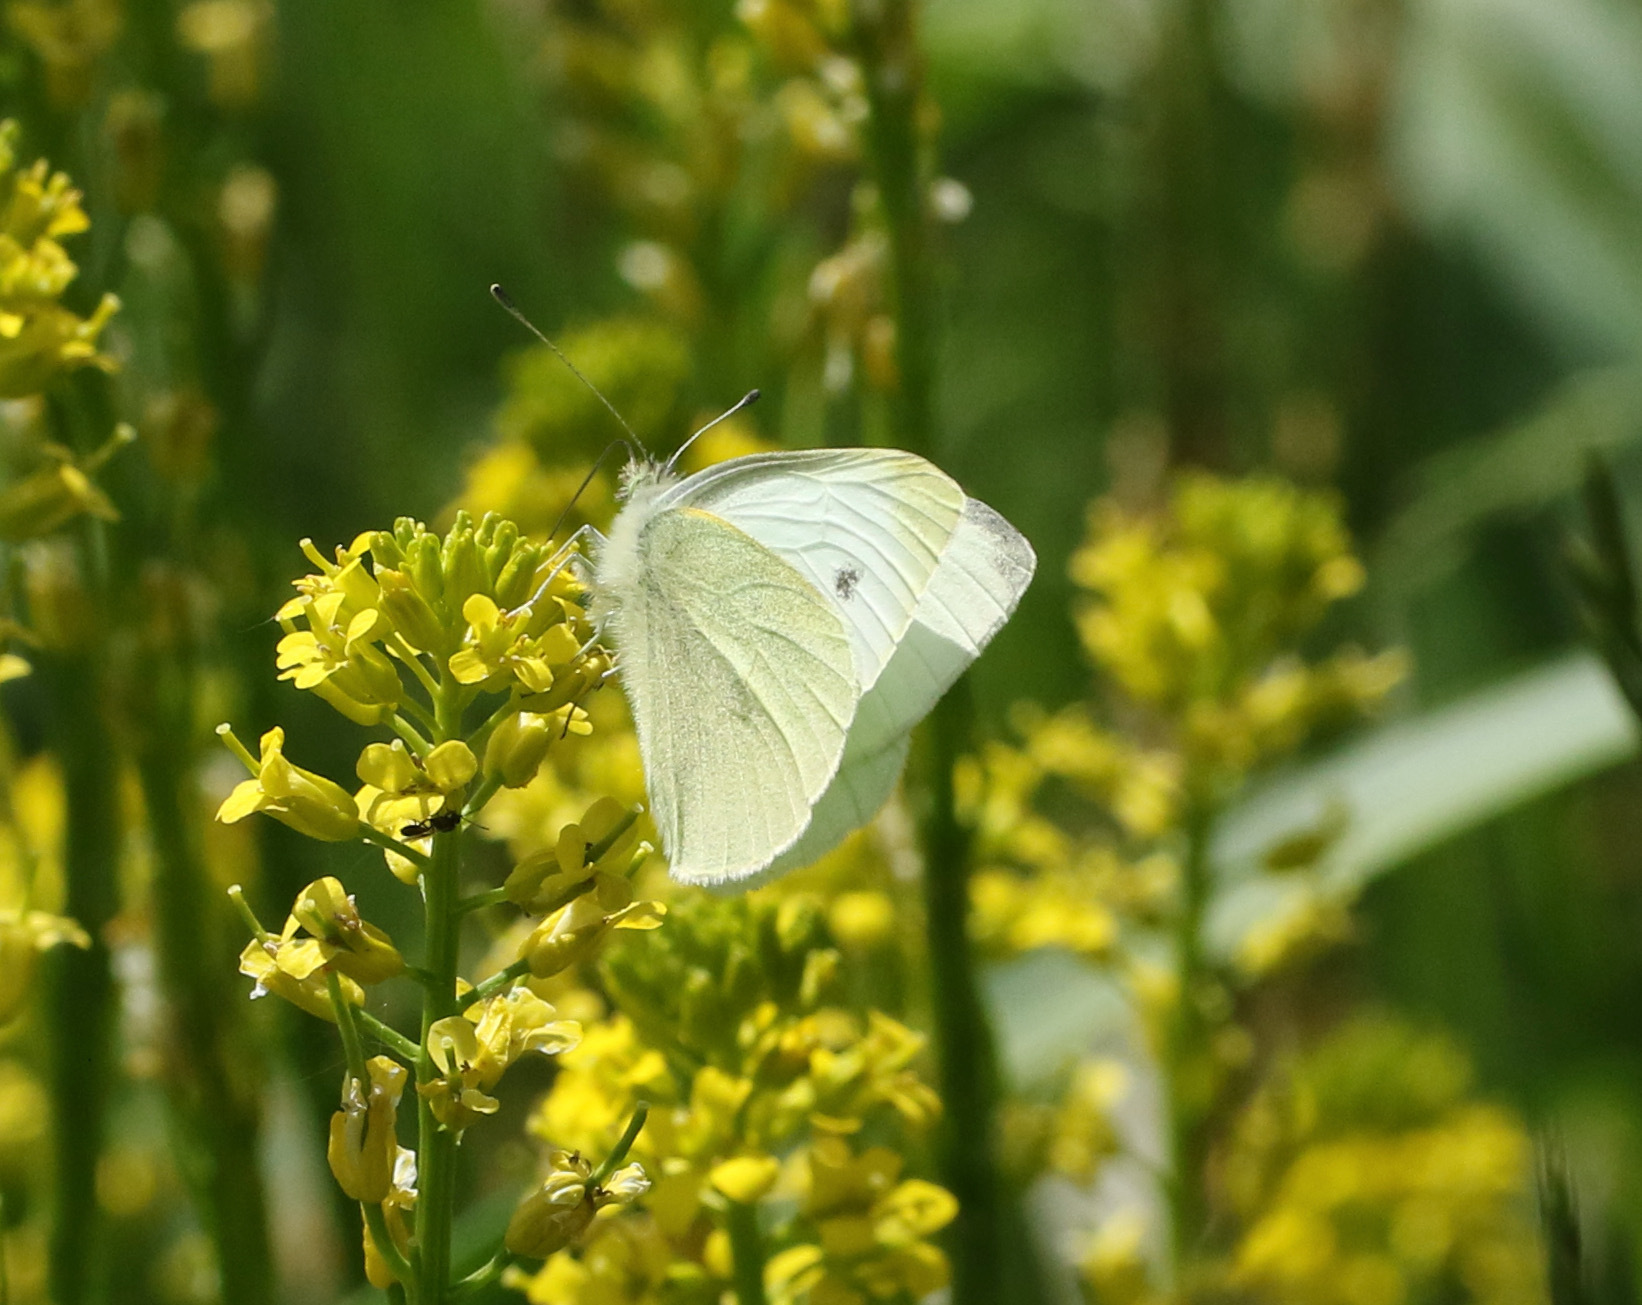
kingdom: Animalia
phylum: Arthropoda
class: Insecta
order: Lepidoptera
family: Pieridae
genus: Pieris
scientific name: Pieris rapae
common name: Small white
